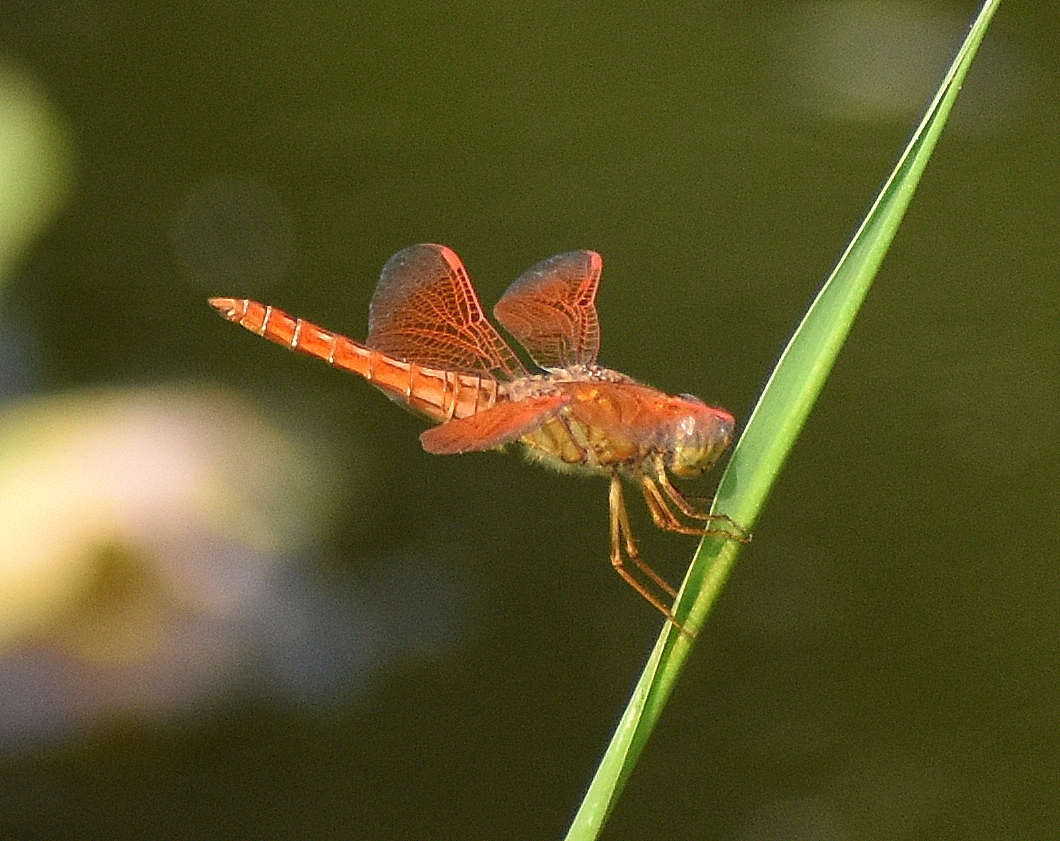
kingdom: Animalia
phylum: Arthropoda
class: Insecta
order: Odonata
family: Libellulidae
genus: Brachythemis
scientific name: Brachythemis contaminata
